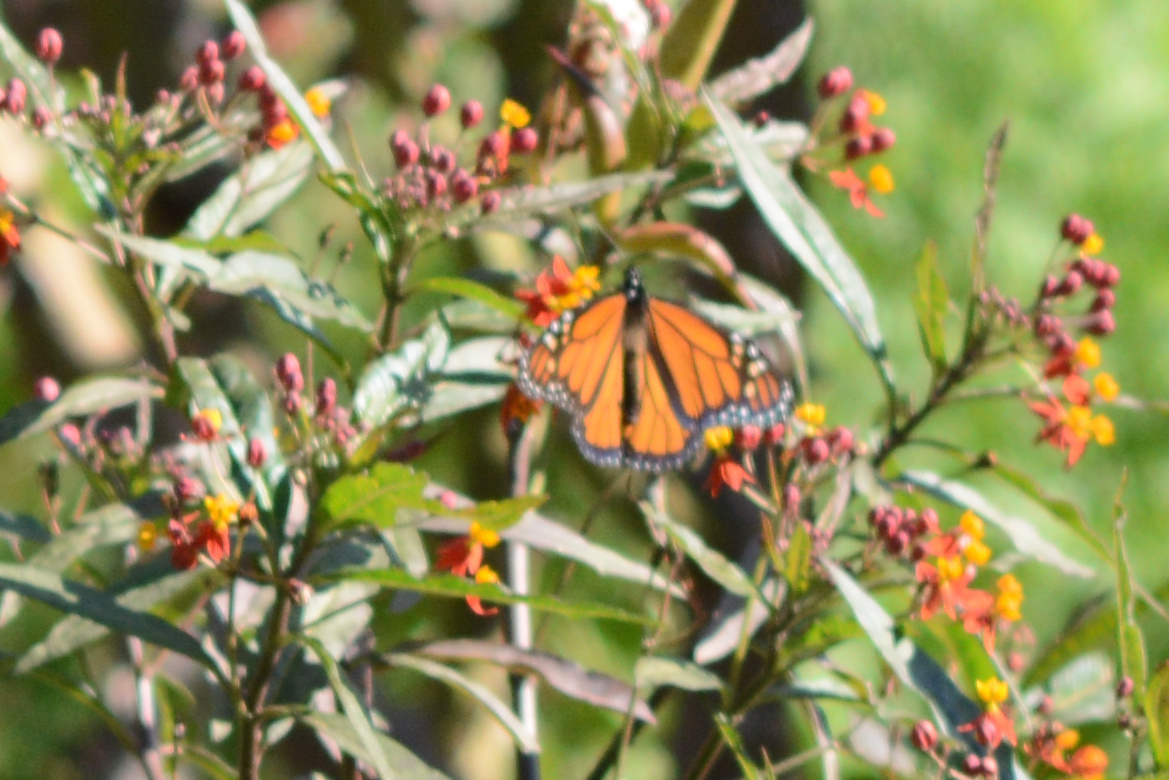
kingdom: Animalia
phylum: Arthropoda
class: Insecta
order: Lepidoptera
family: Nymphalidae
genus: Danaus
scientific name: Danaus plexippus
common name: Monarch
